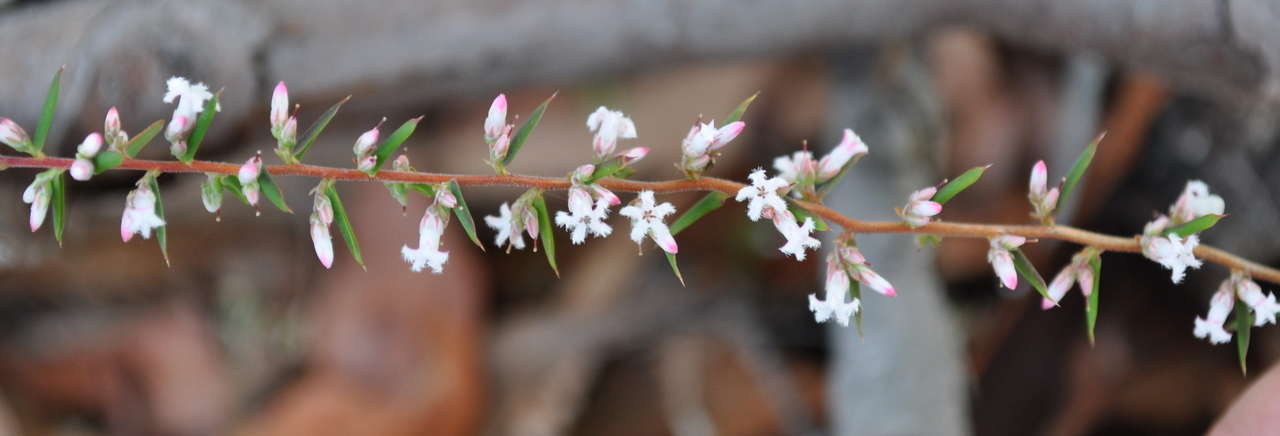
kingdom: Plantae
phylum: Tracheophyta
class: Magnoliopsida
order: Ericales
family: Ericaceae
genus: Styphelia
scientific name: Styphelia ericoides
